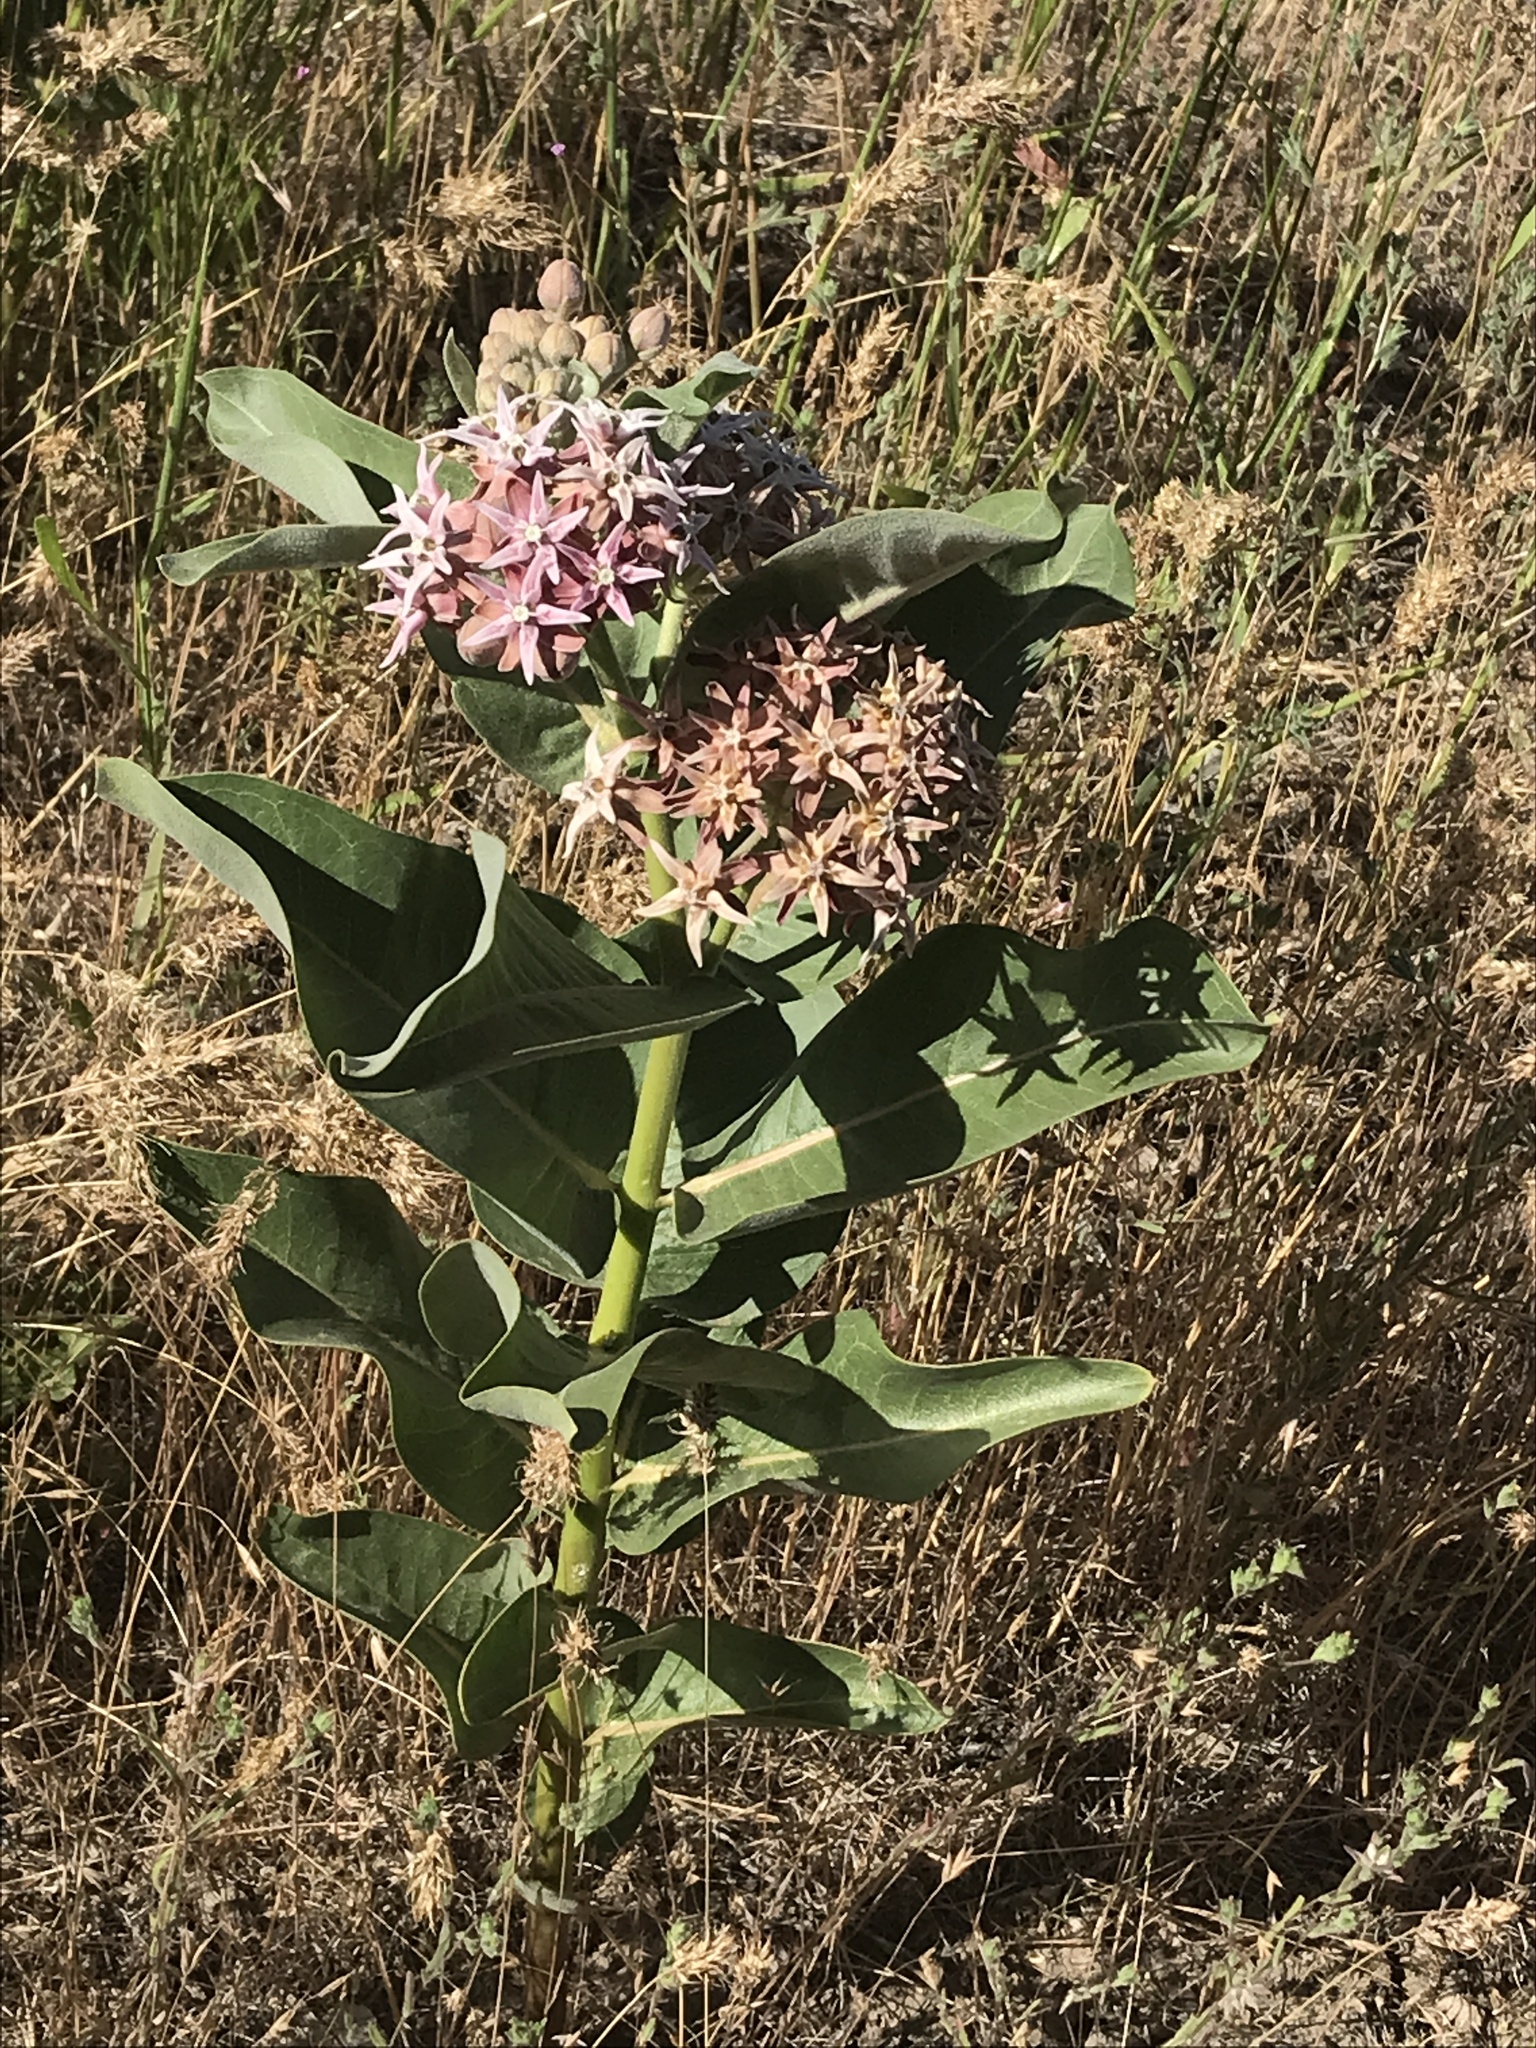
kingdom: Plantae
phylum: Tracheophyta
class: Magnoliopsida
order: Gentianales
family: Apocynaceae
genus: Asclepias
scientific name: Asclepias speciosa
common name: Showy milkweed
